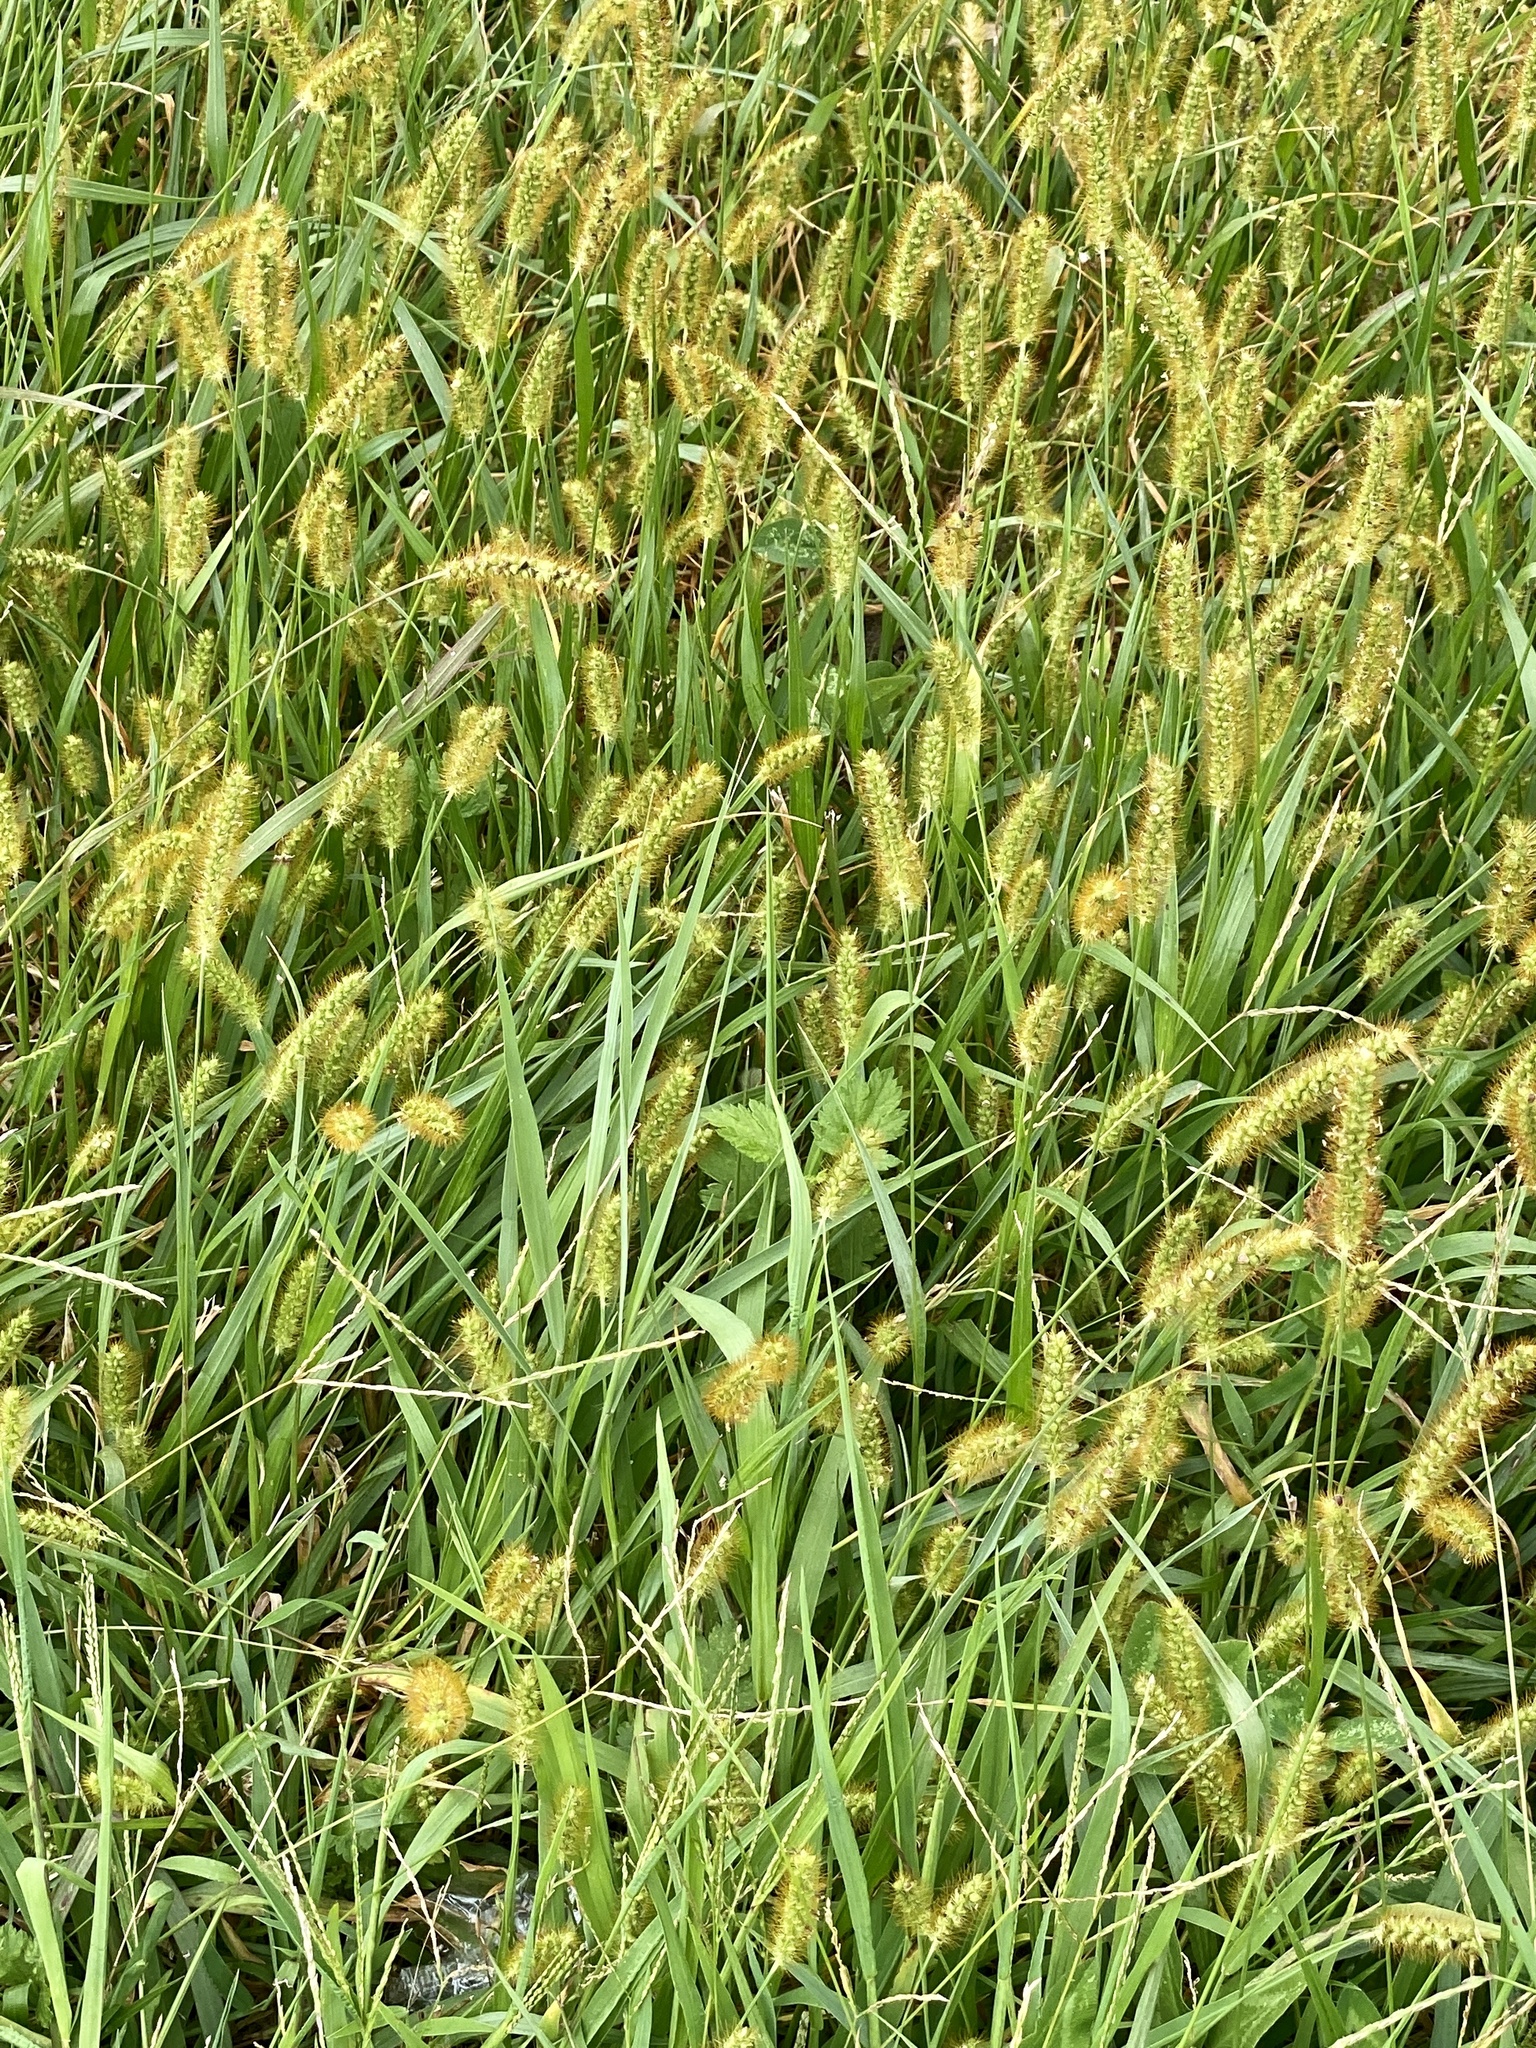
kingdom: Plantae
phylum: Tracheophyta
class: Liliopsida
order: Poales
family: Poaceae
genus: Setaria
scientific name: Setaria pumila
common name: Yellow bristle-grass
